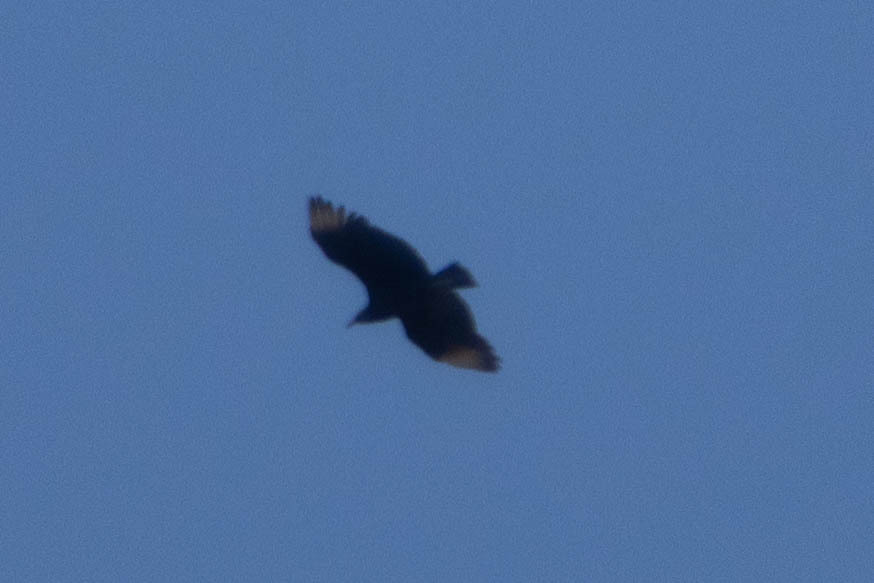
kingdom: Animalia
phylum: Chordata
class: Aves
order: Accipitriformes
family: Cathartidae
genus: Coragyps
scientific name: Coragyps atratus
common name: Black vulture
